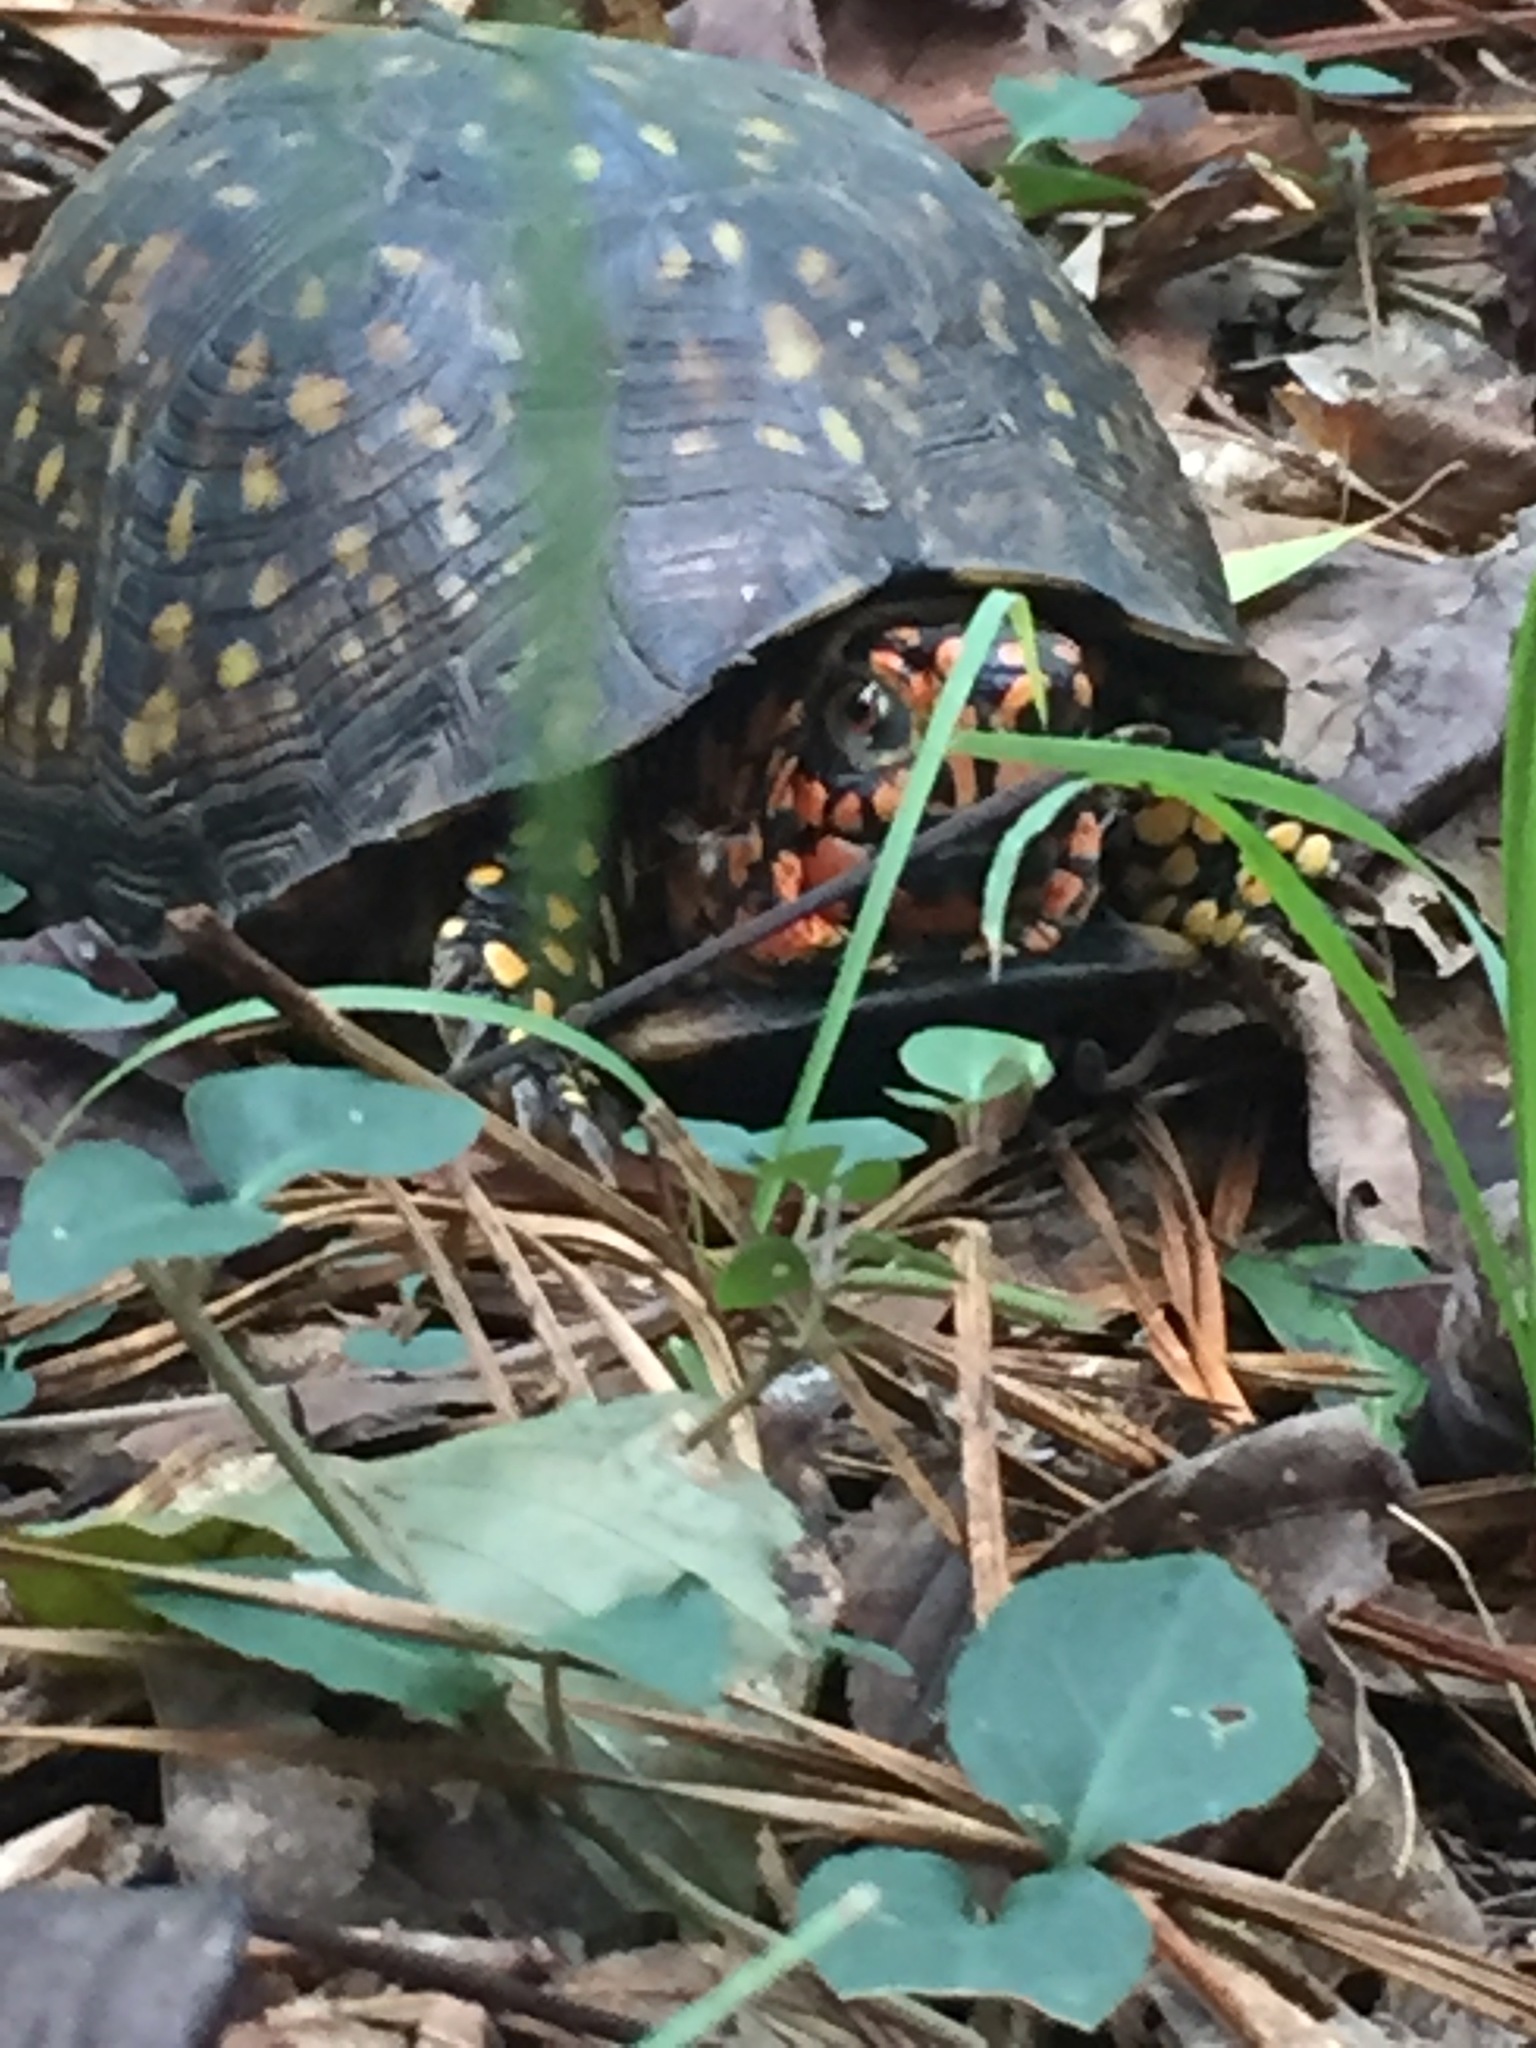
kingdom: Animalia
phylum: Chordata
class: Testudines
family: Emydidae
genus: Terrapene
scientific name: Terrapene carolina
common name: Common box turtle
